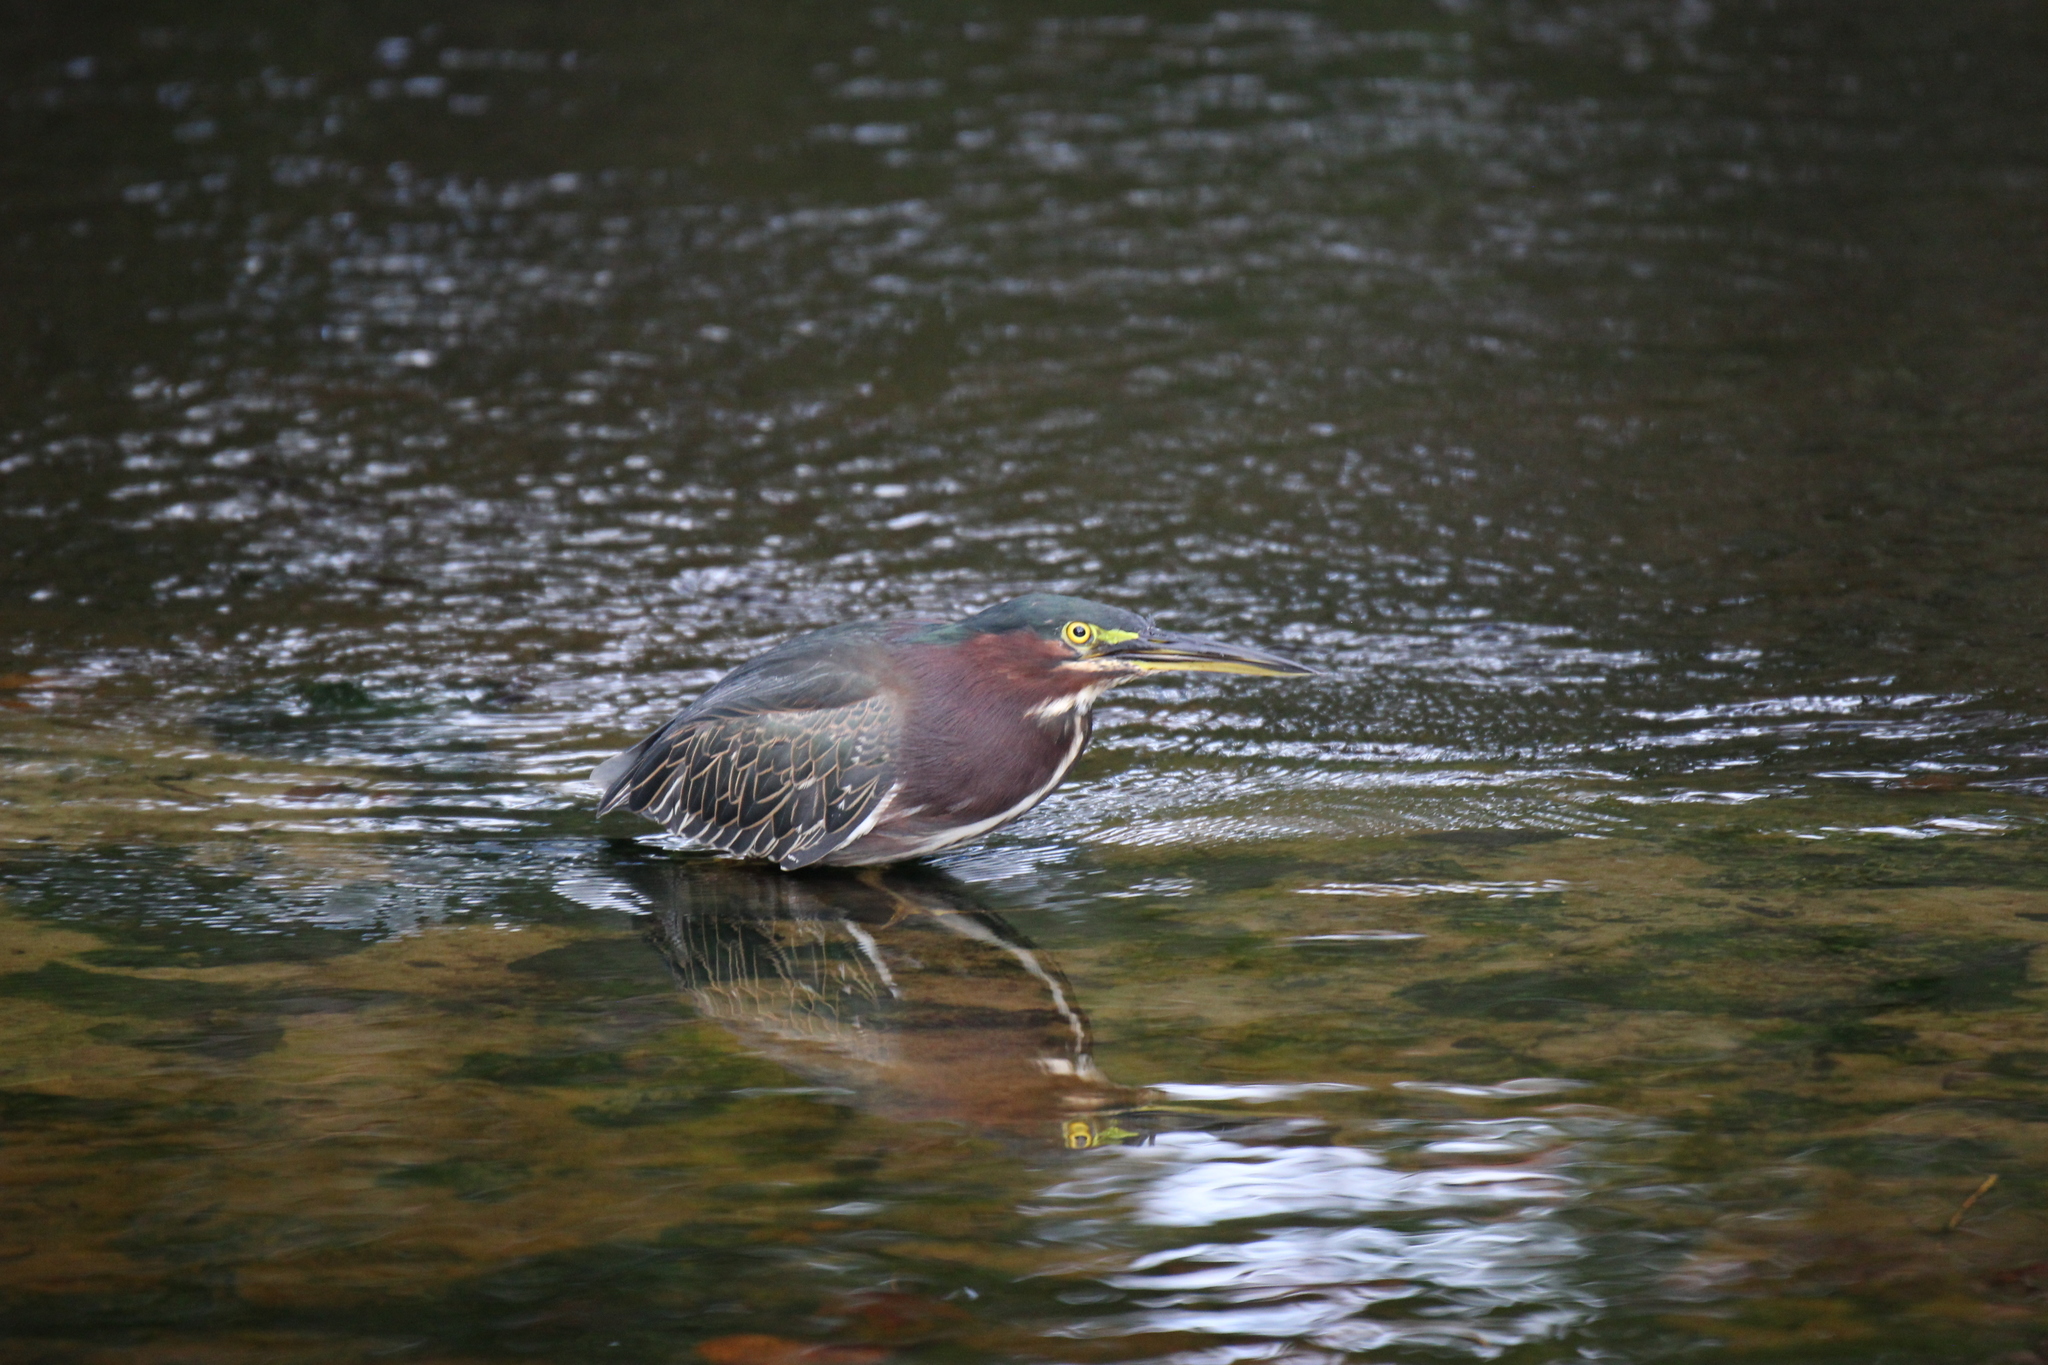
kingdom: Animalia
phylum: Chordata
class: Aves
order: Pelecaniformes
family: Ardeidae
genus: Butorides
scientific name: Butorides virescens
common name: Green heron
